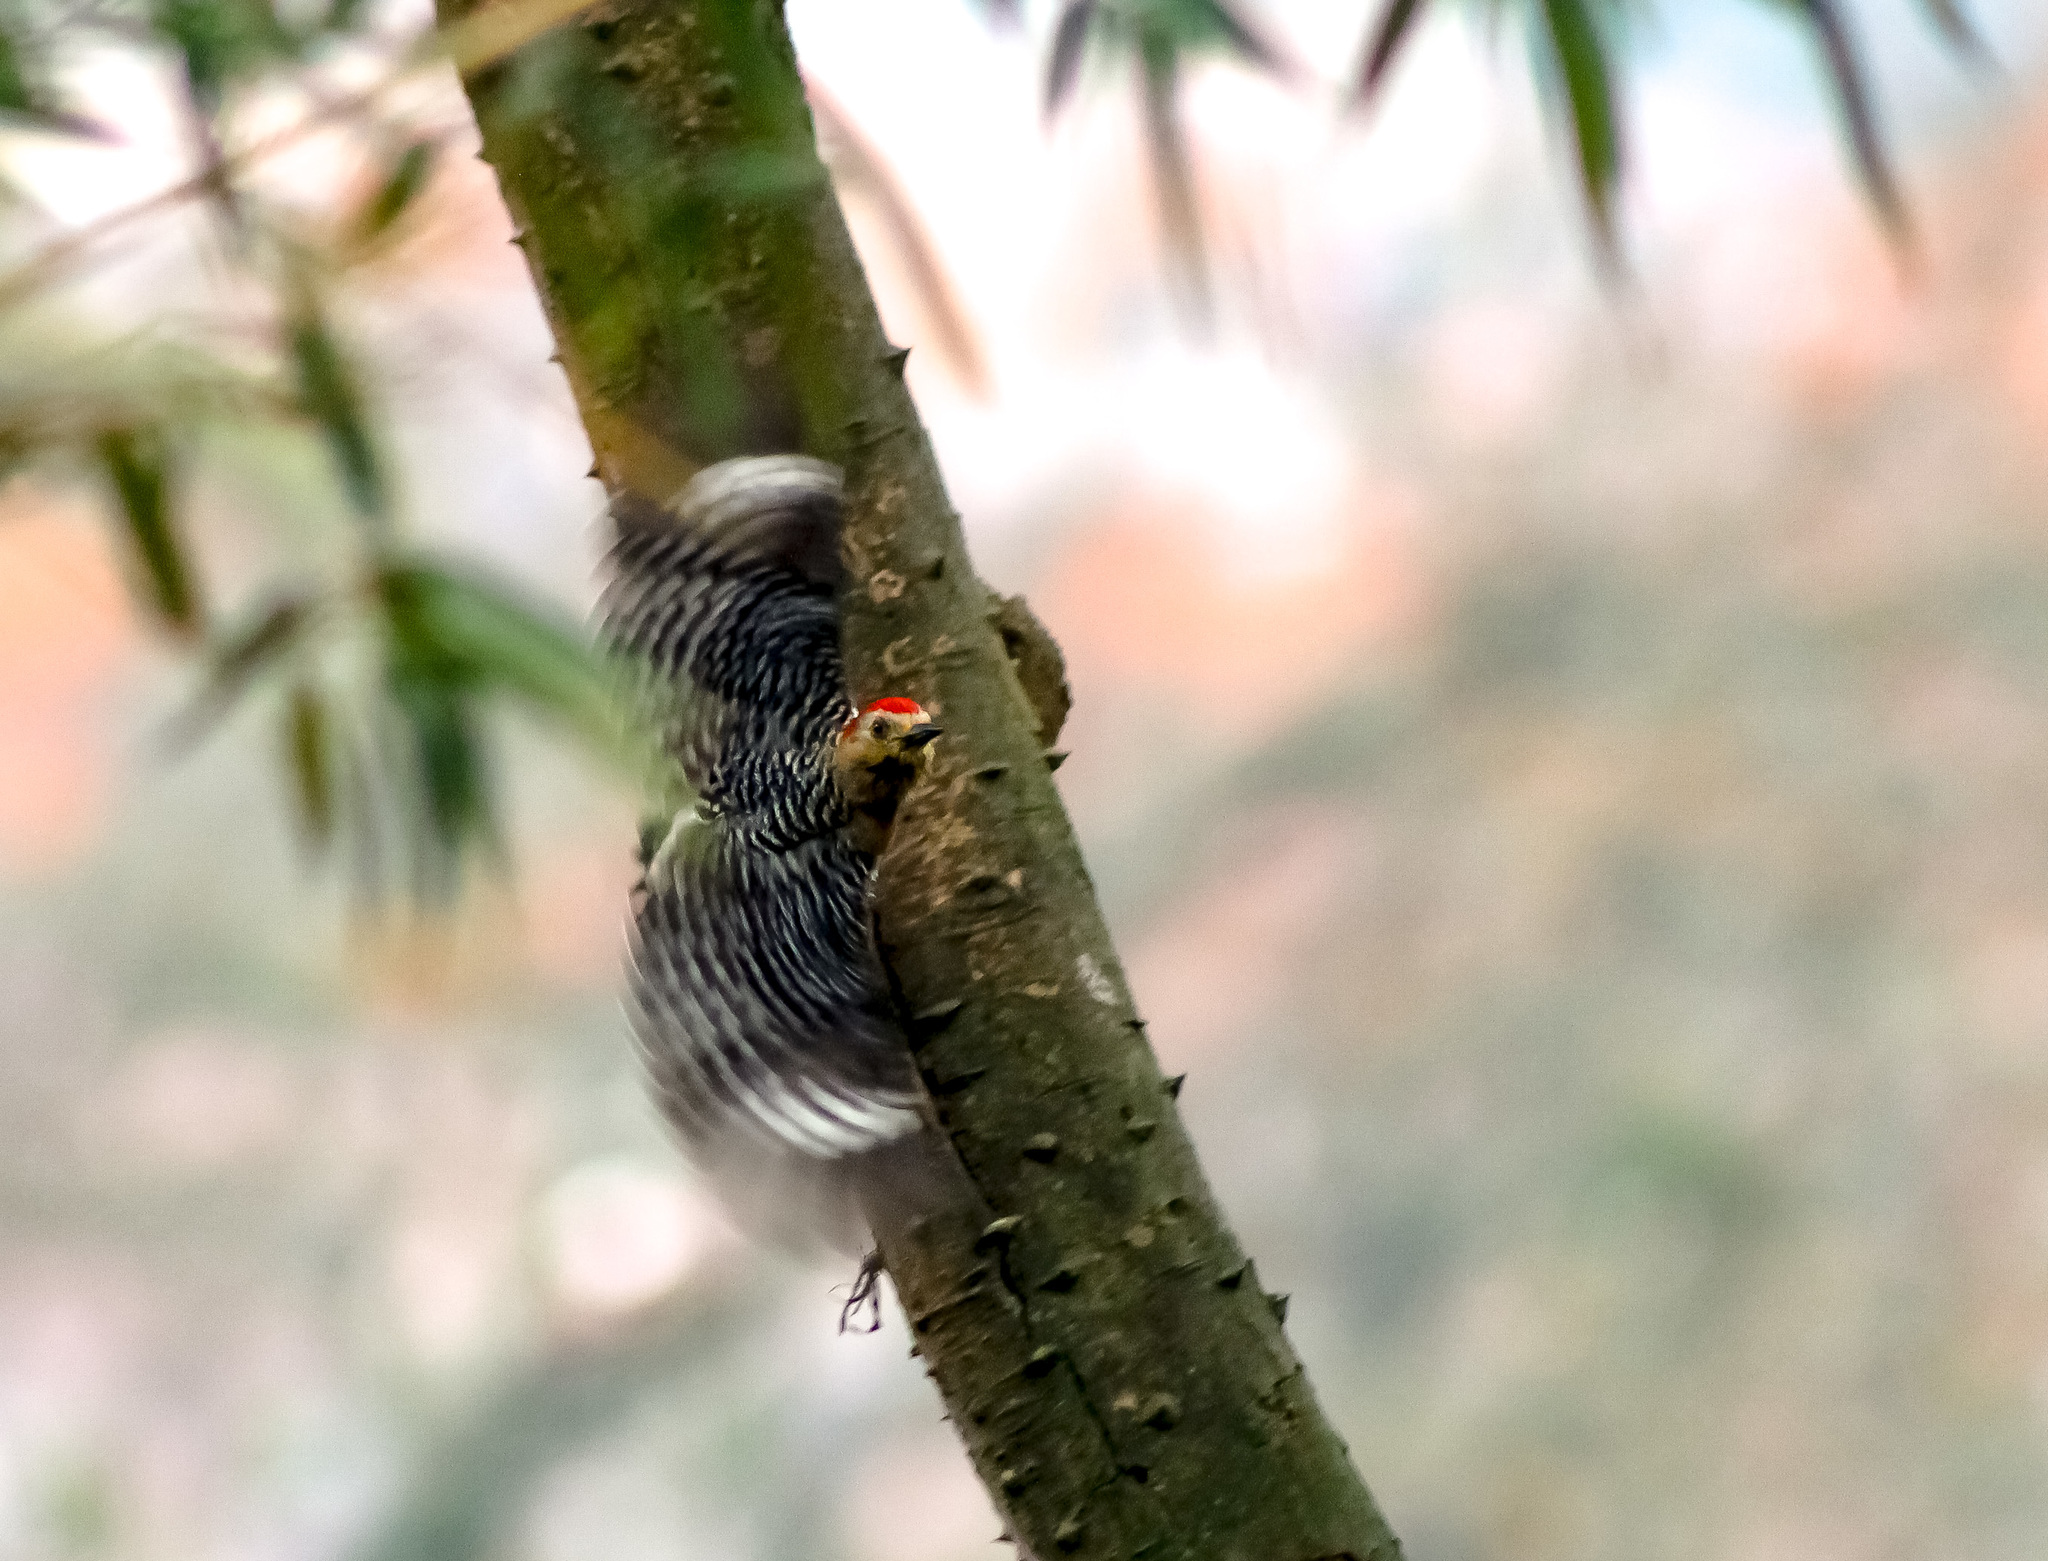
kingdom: Animalia
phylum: Chordata
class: Aves
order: Piciformes
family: Picidae
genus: Melanerpes
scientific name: Melanerpes rubricapillus
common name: Red-crowned woodpecker
